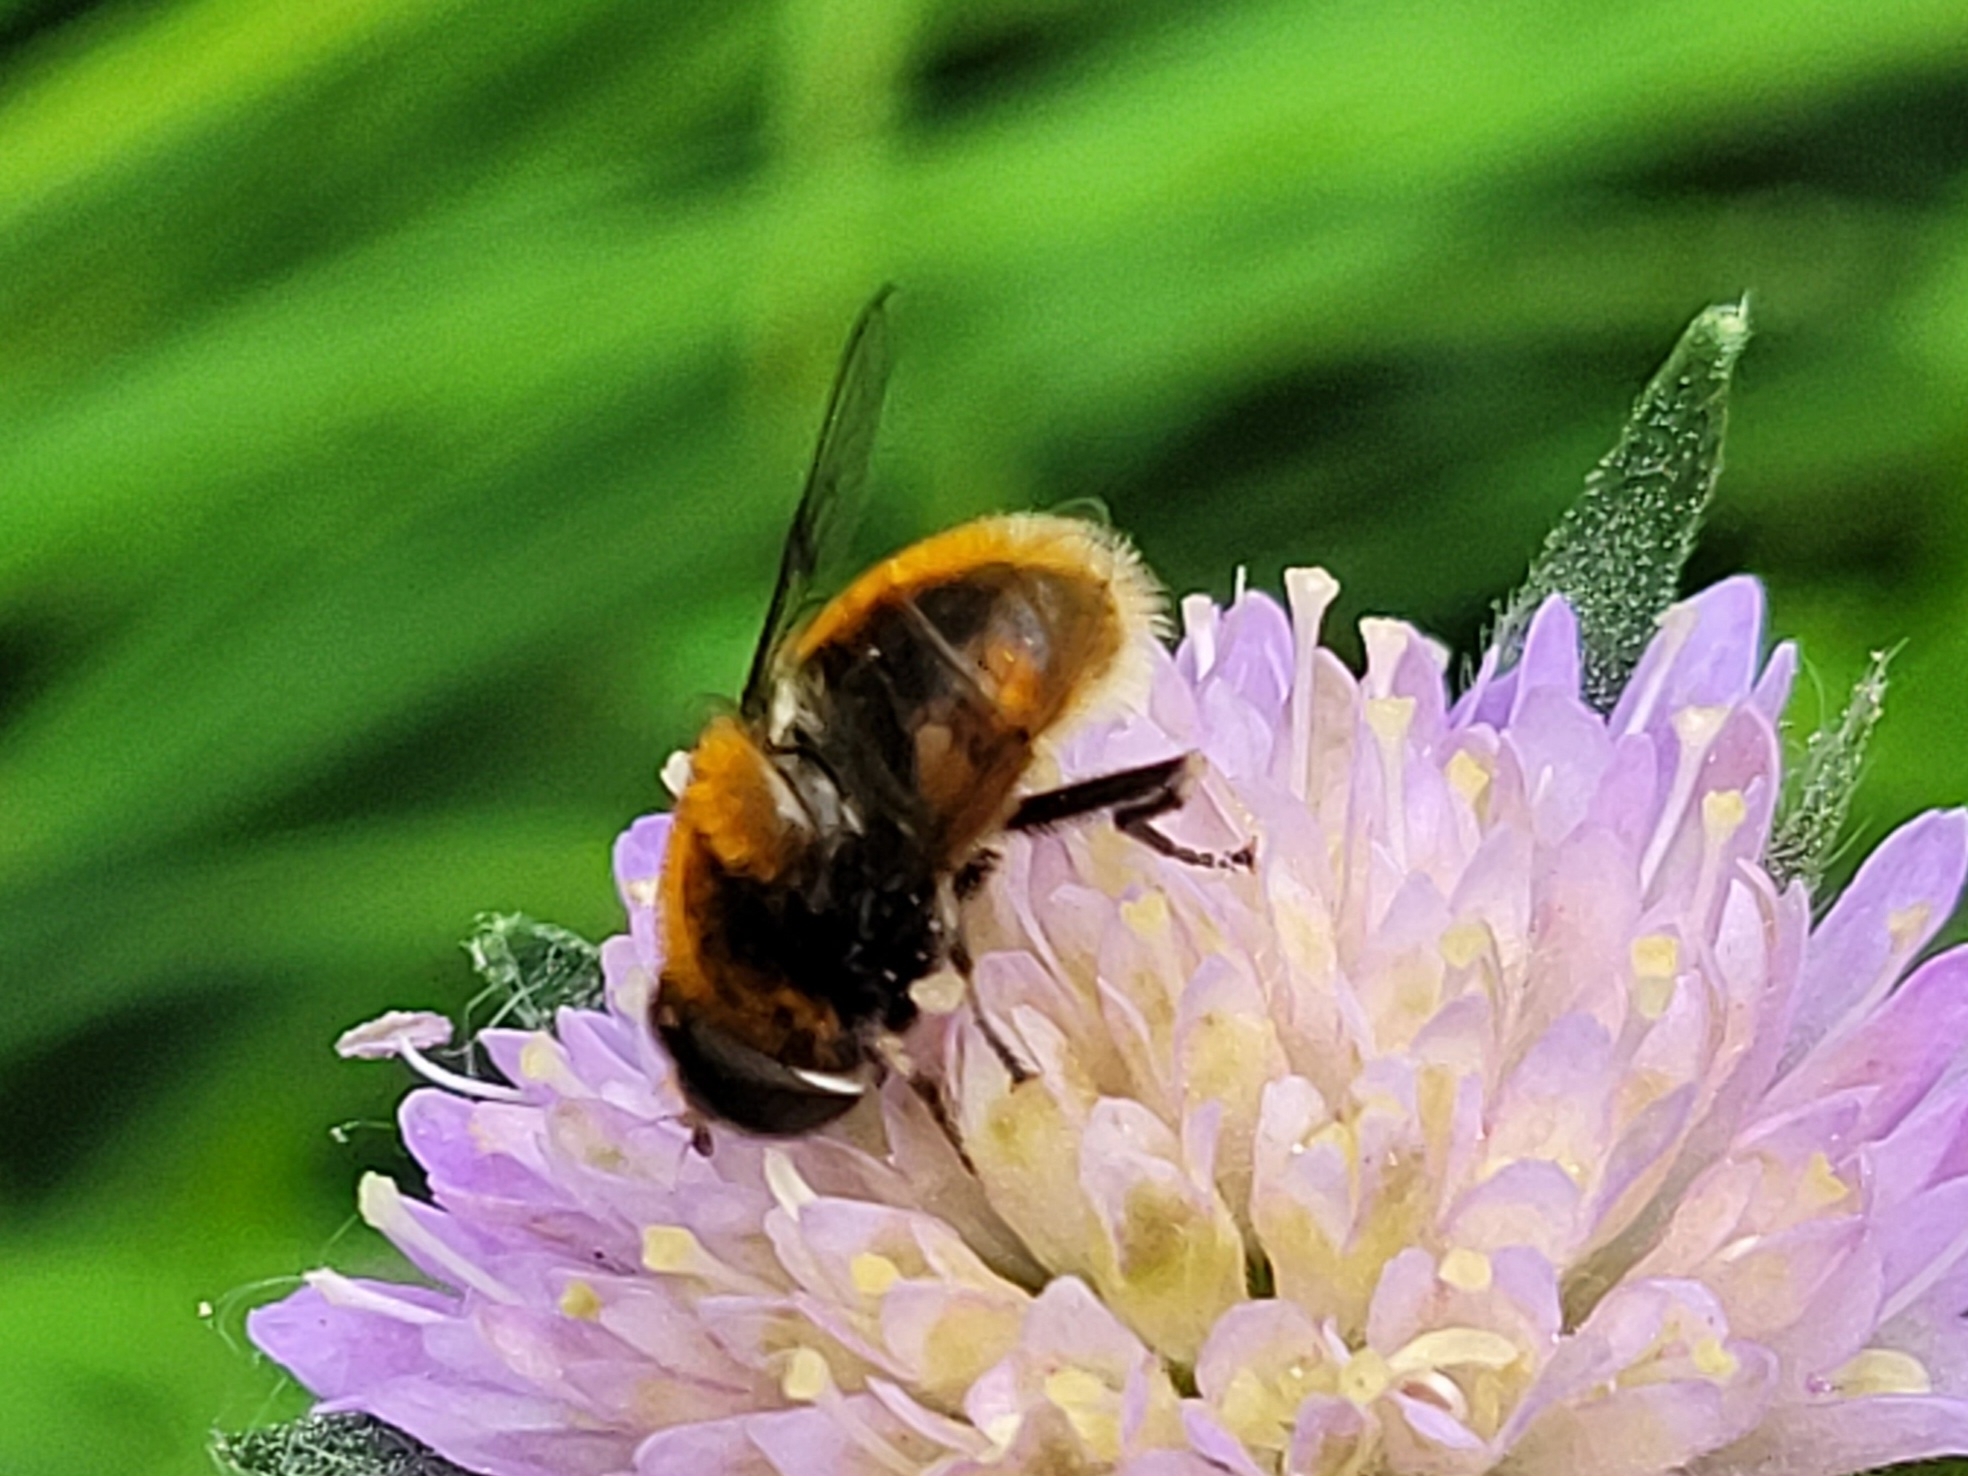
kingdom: Animalia
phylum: Arthropoda
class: Insecta
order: Diptera
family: Syrphidae
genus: Eristalis
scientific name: Eristalis intricaria
